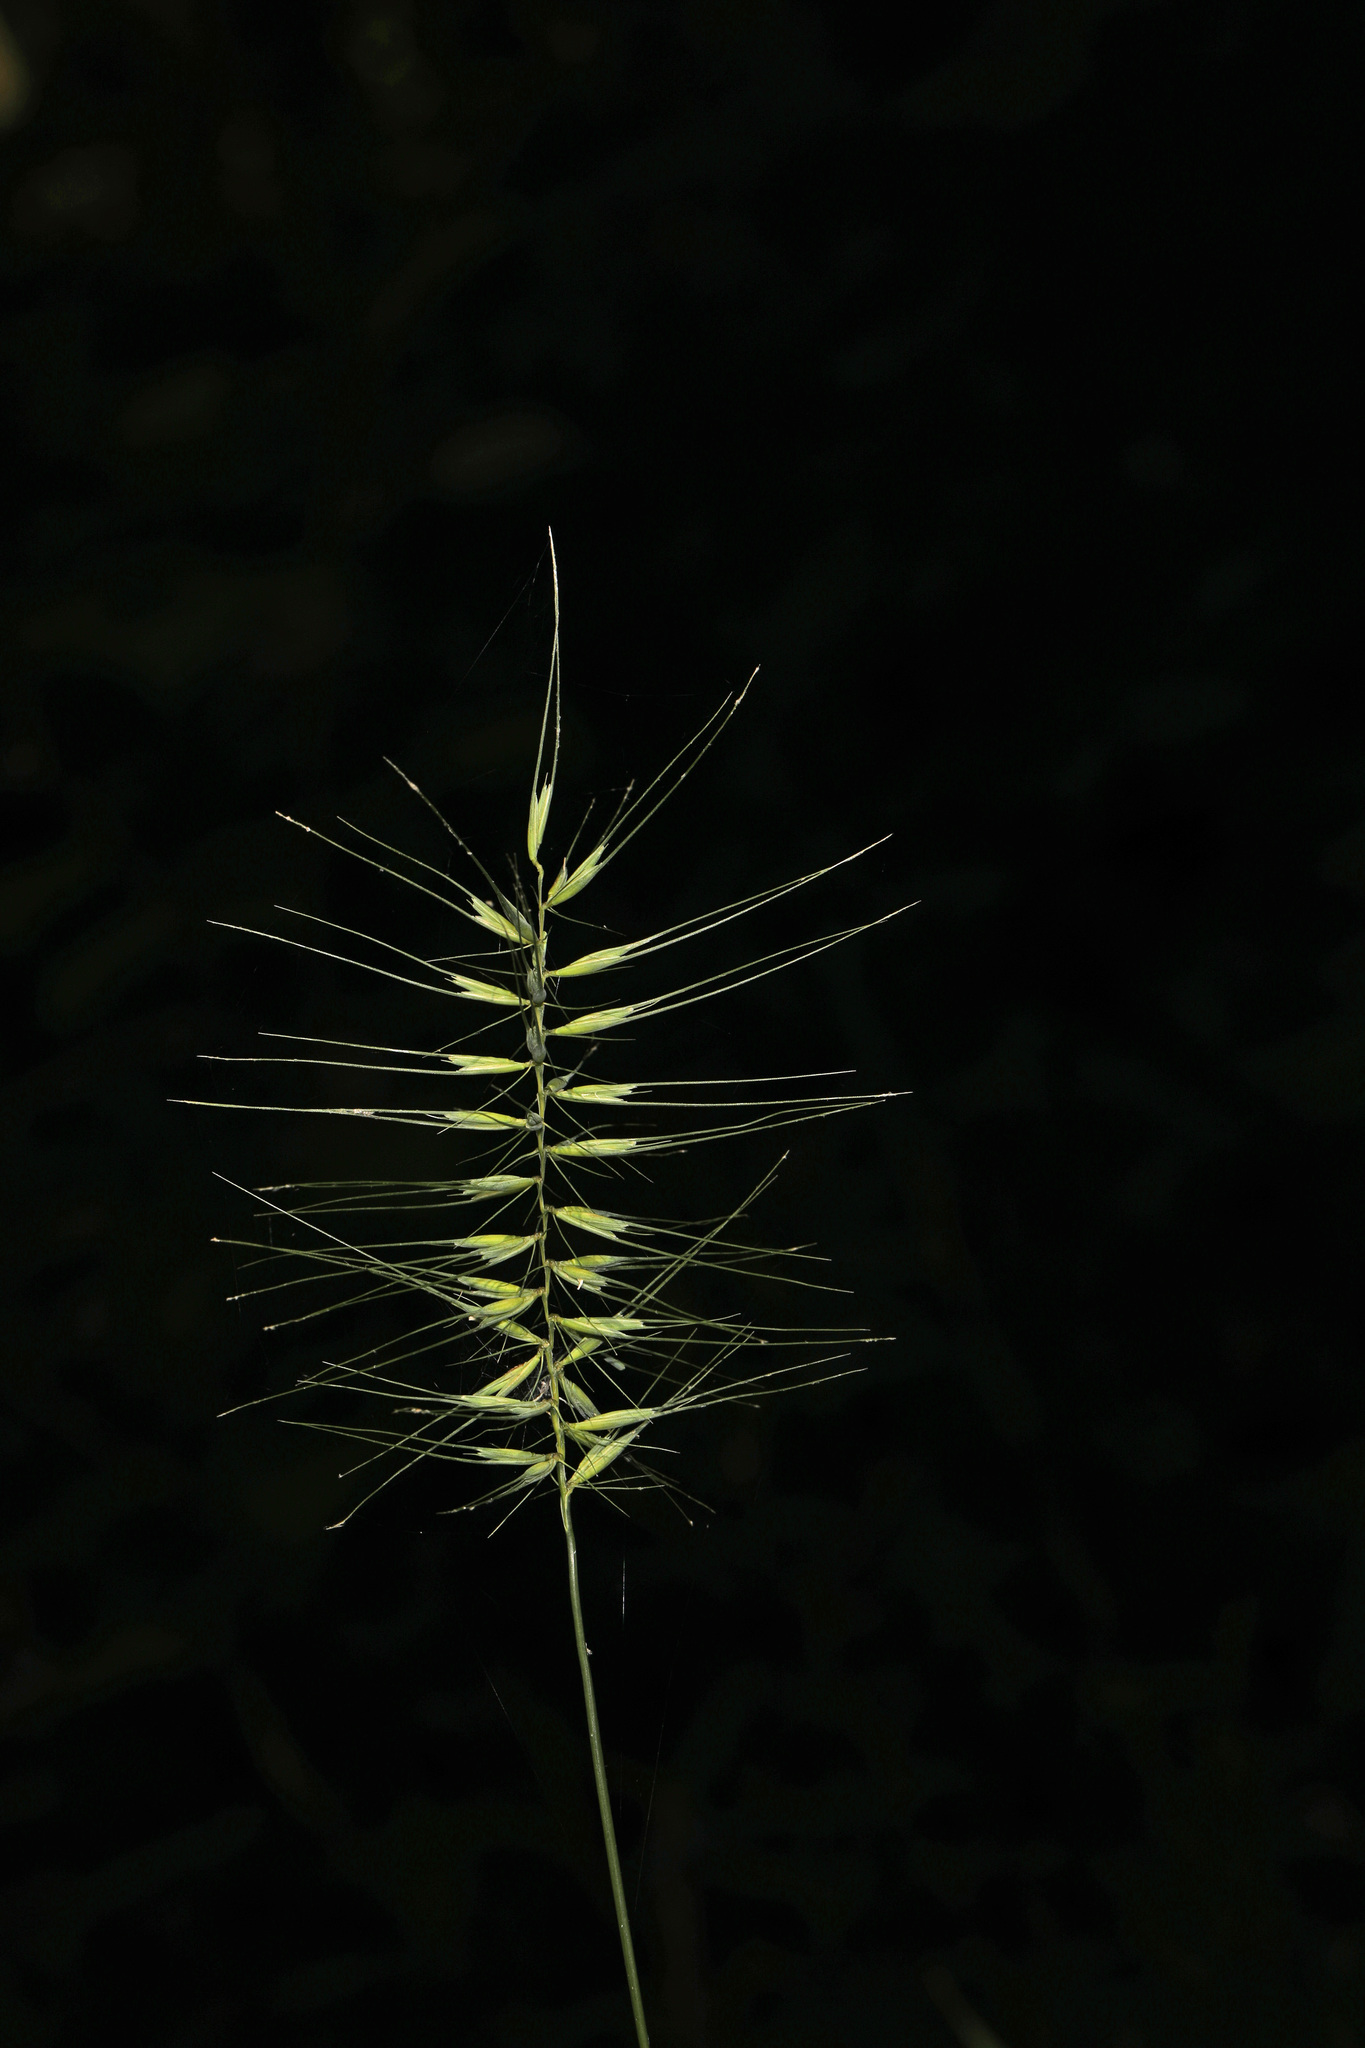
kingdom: Plantae
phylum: Tracheophyta
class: Liliopsida
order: Poales
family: Poaceae
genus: Elymus
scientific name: Elymus hystrix
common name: Bottlebrush grass
